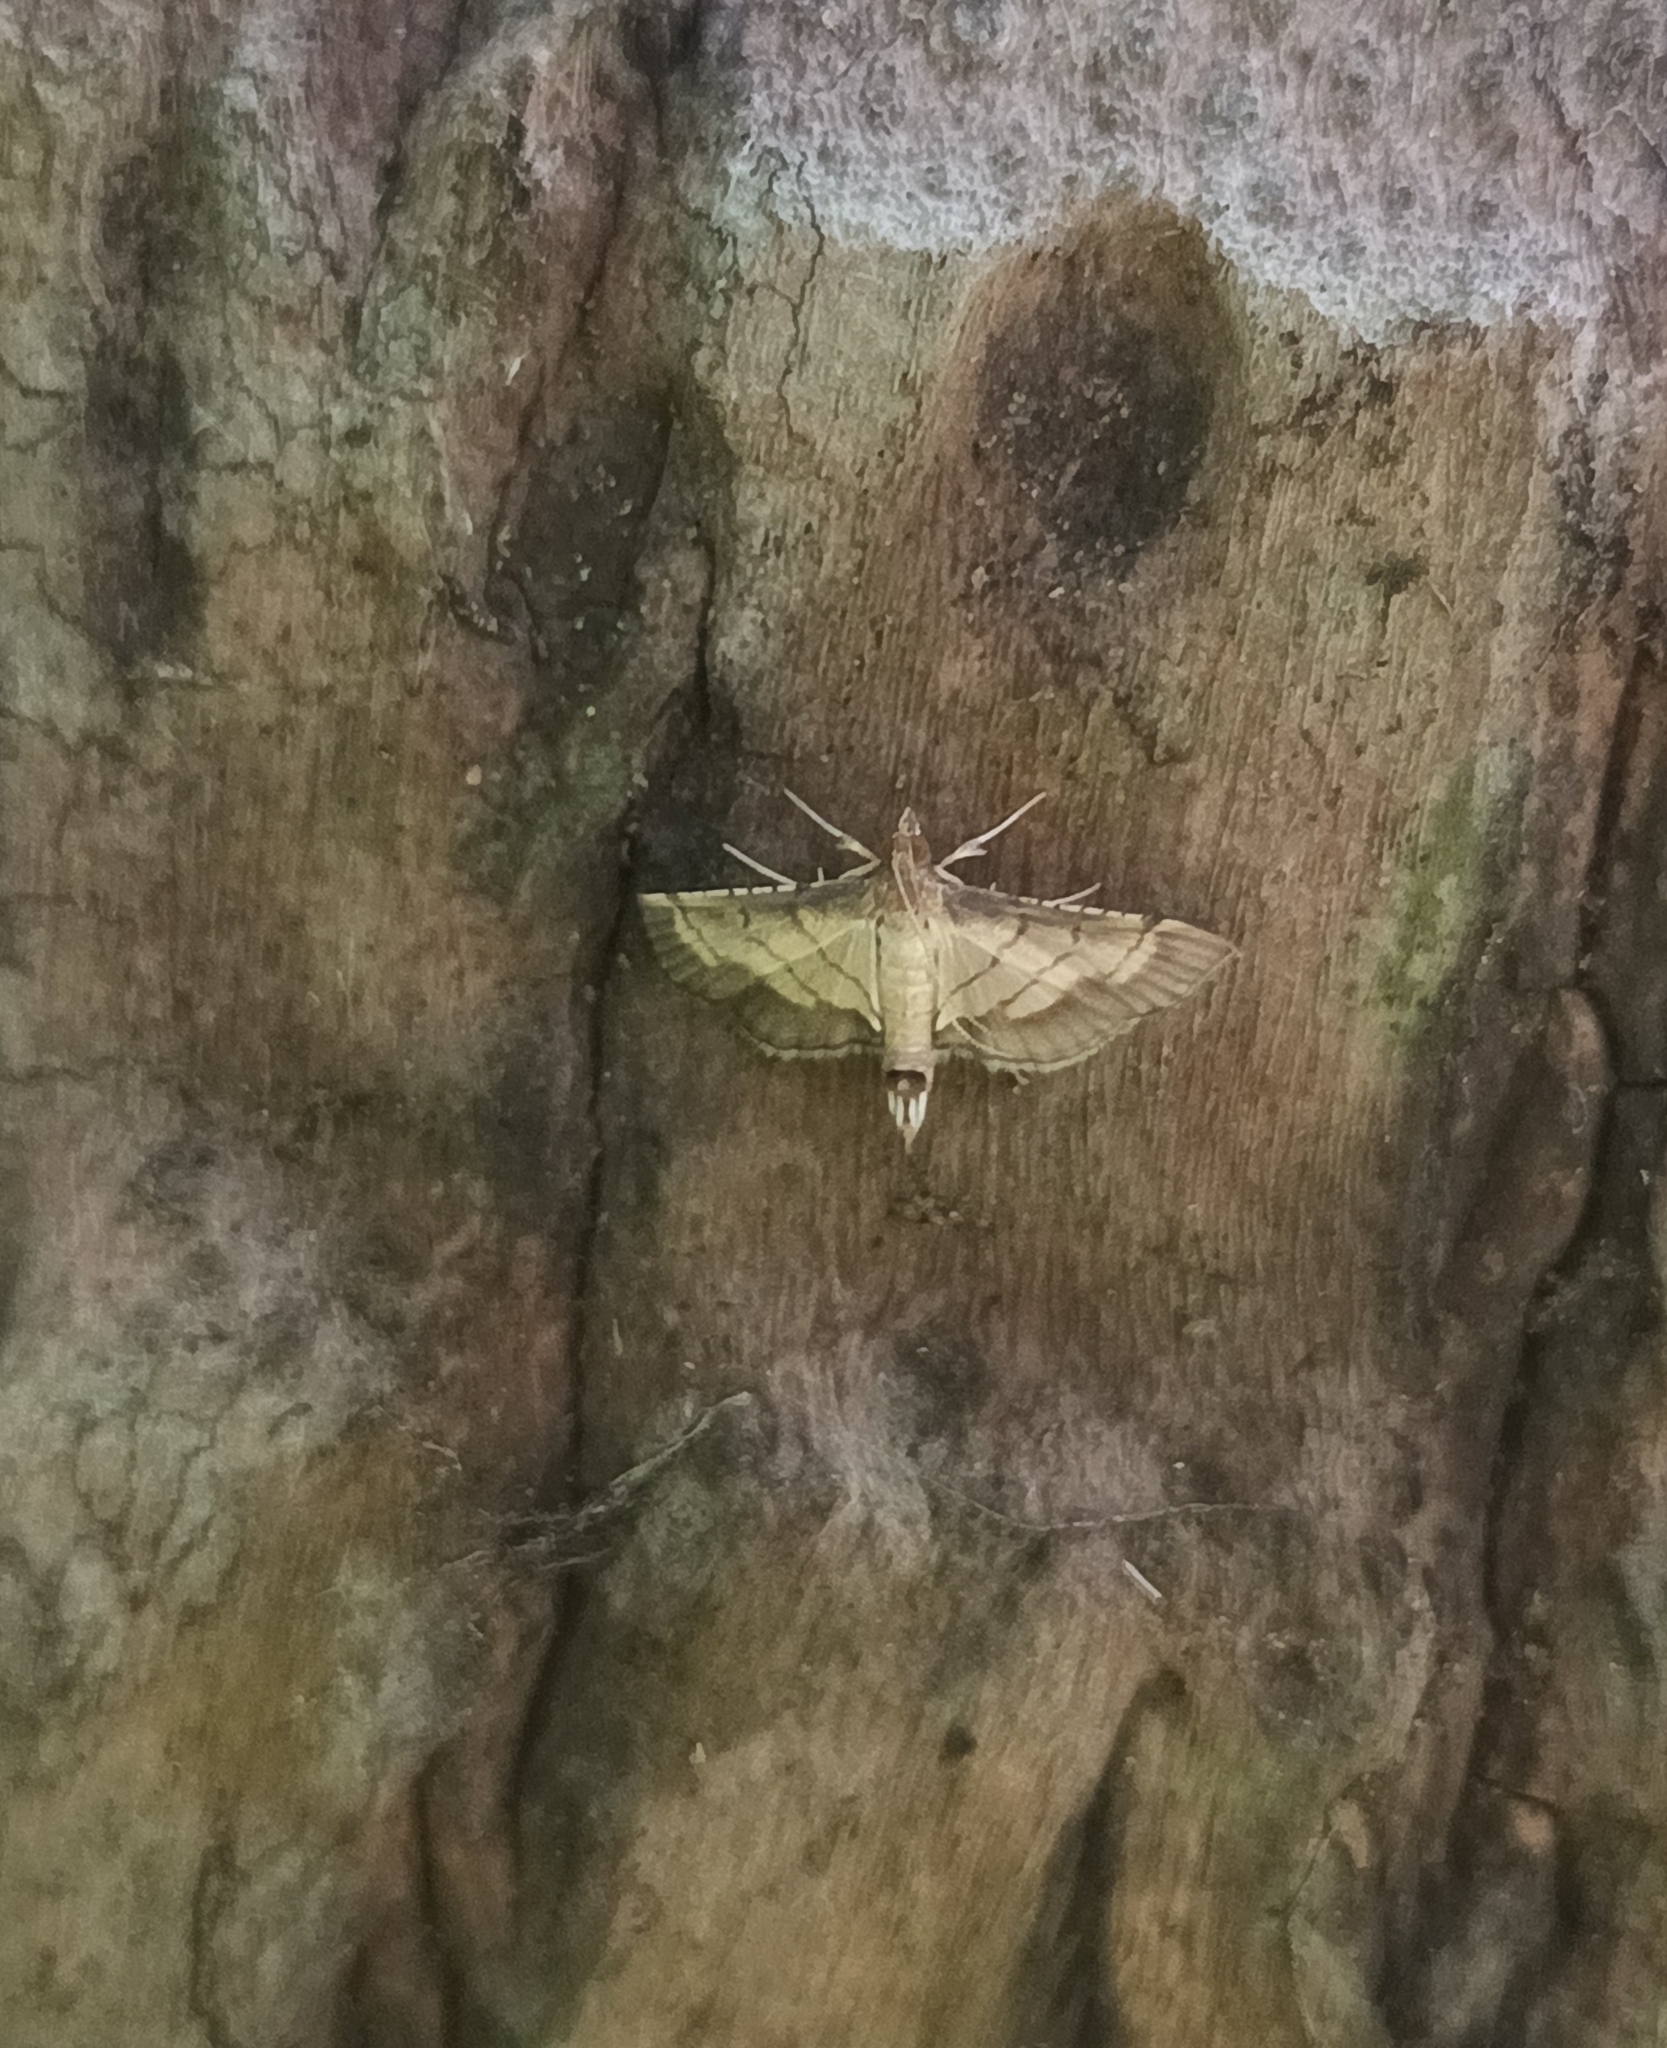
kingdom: Animalia
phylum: Arthropoda
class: Insecta
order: Lepidoptera
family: Crambidae
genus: Cnaphalocrocis
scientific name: Cnaphalocrocis trebiusalis
